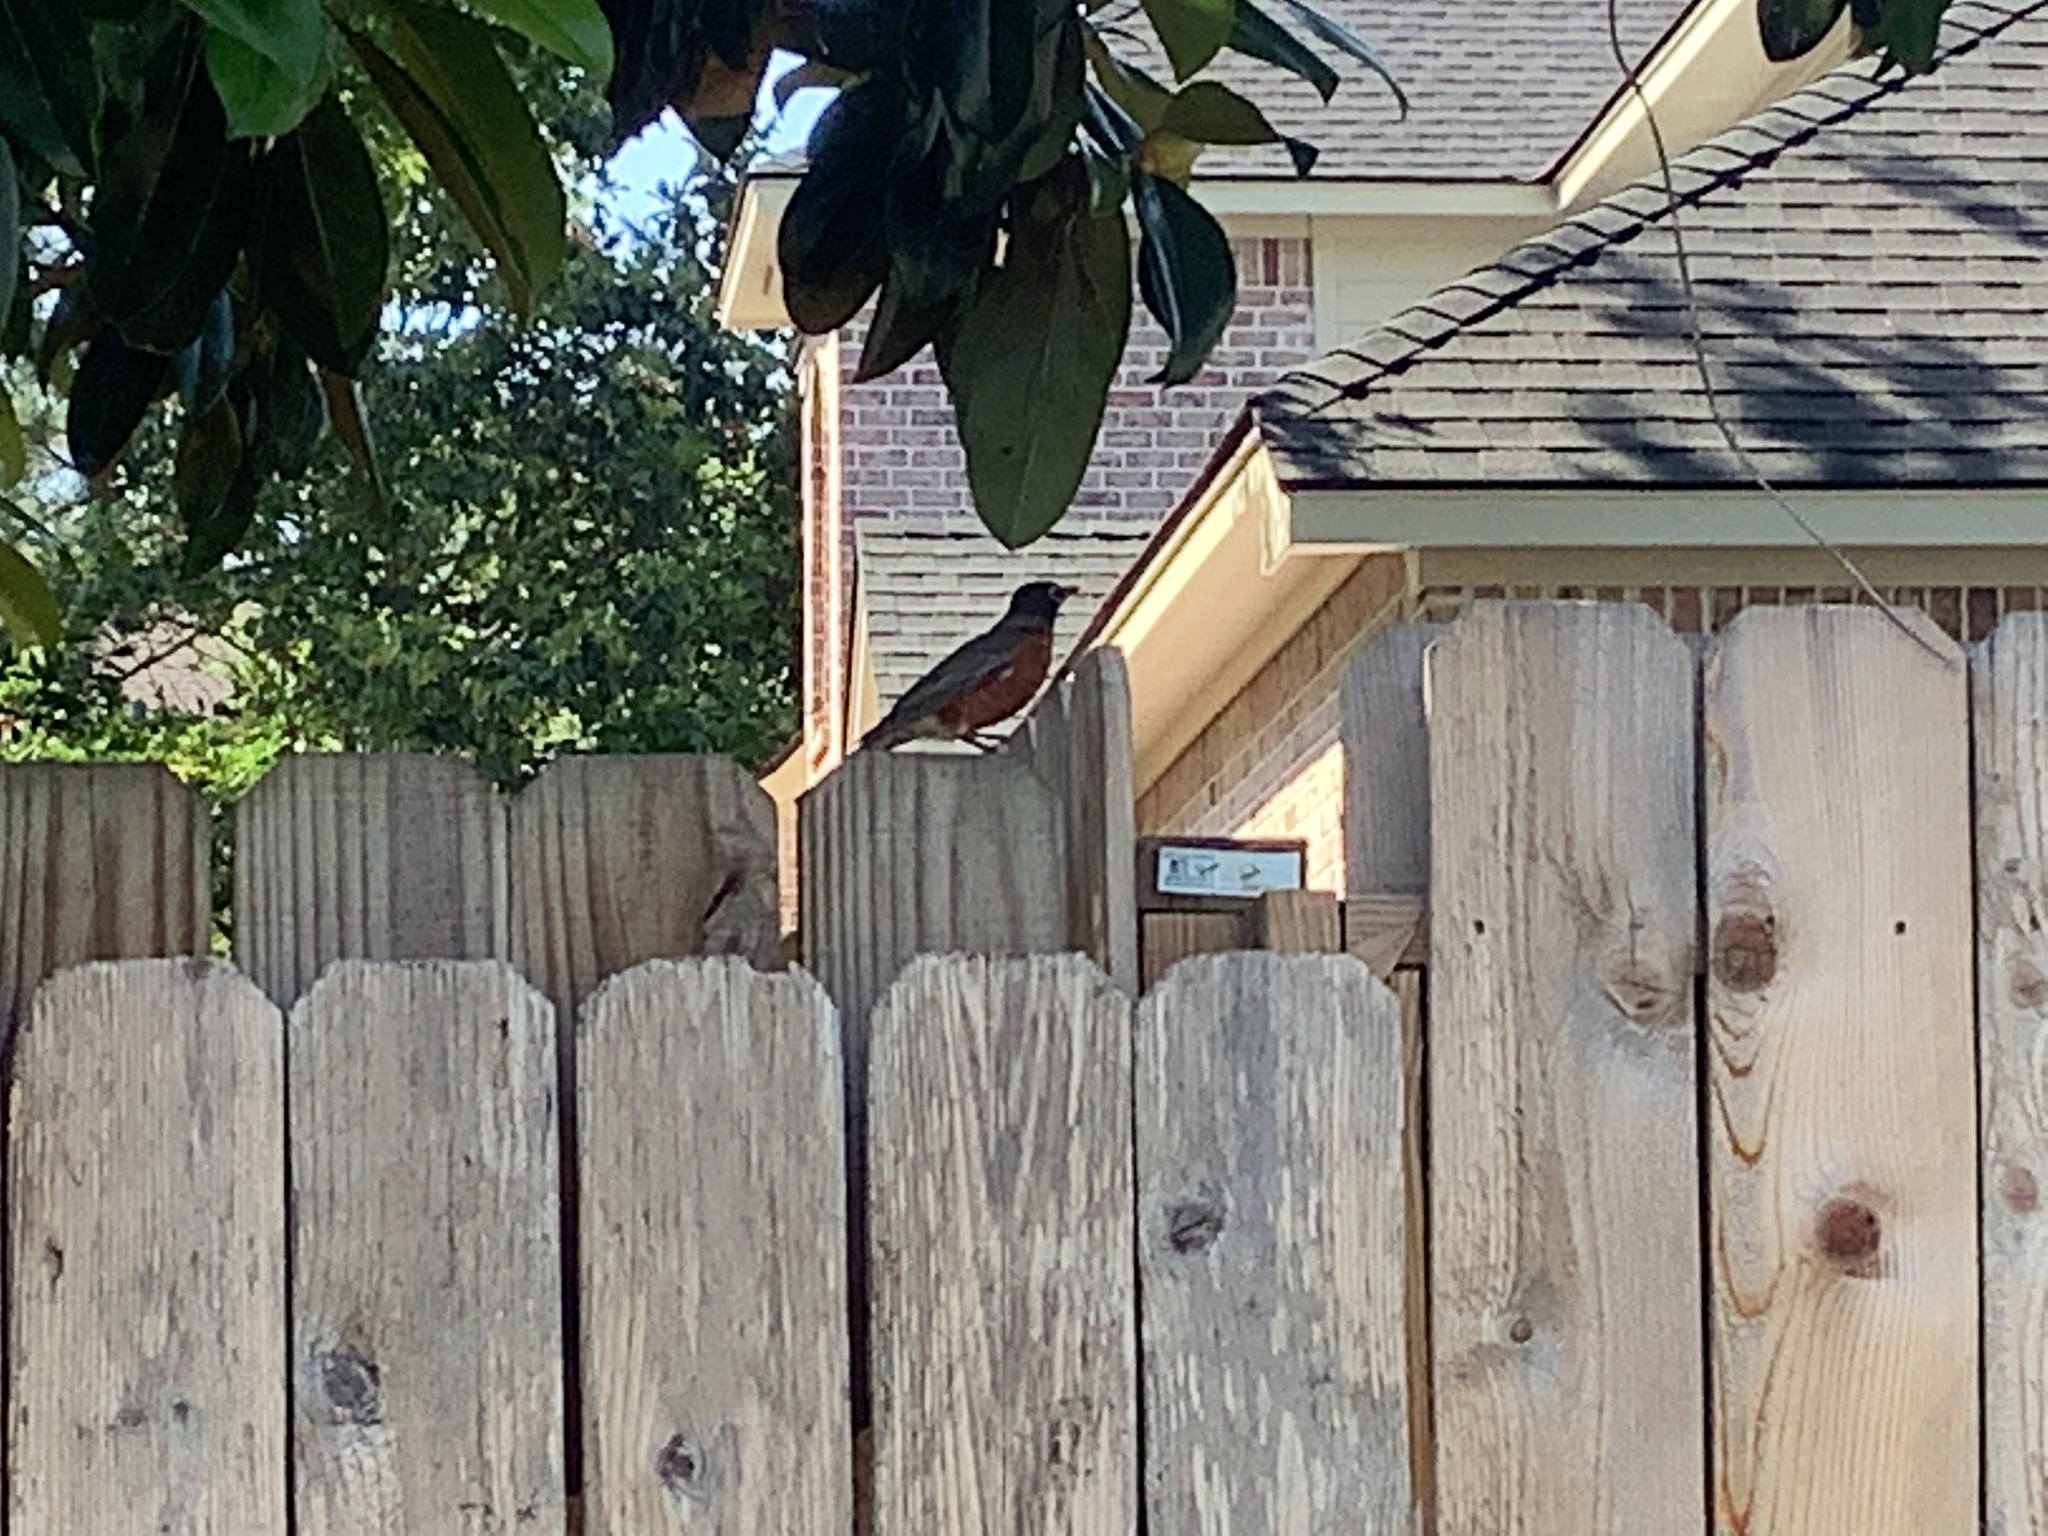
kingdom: Animalia
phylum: Chordata
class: Aves
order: Passeriformes
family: Turdidae
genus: Turdus
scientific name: Turdus migratorius
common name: American robin
